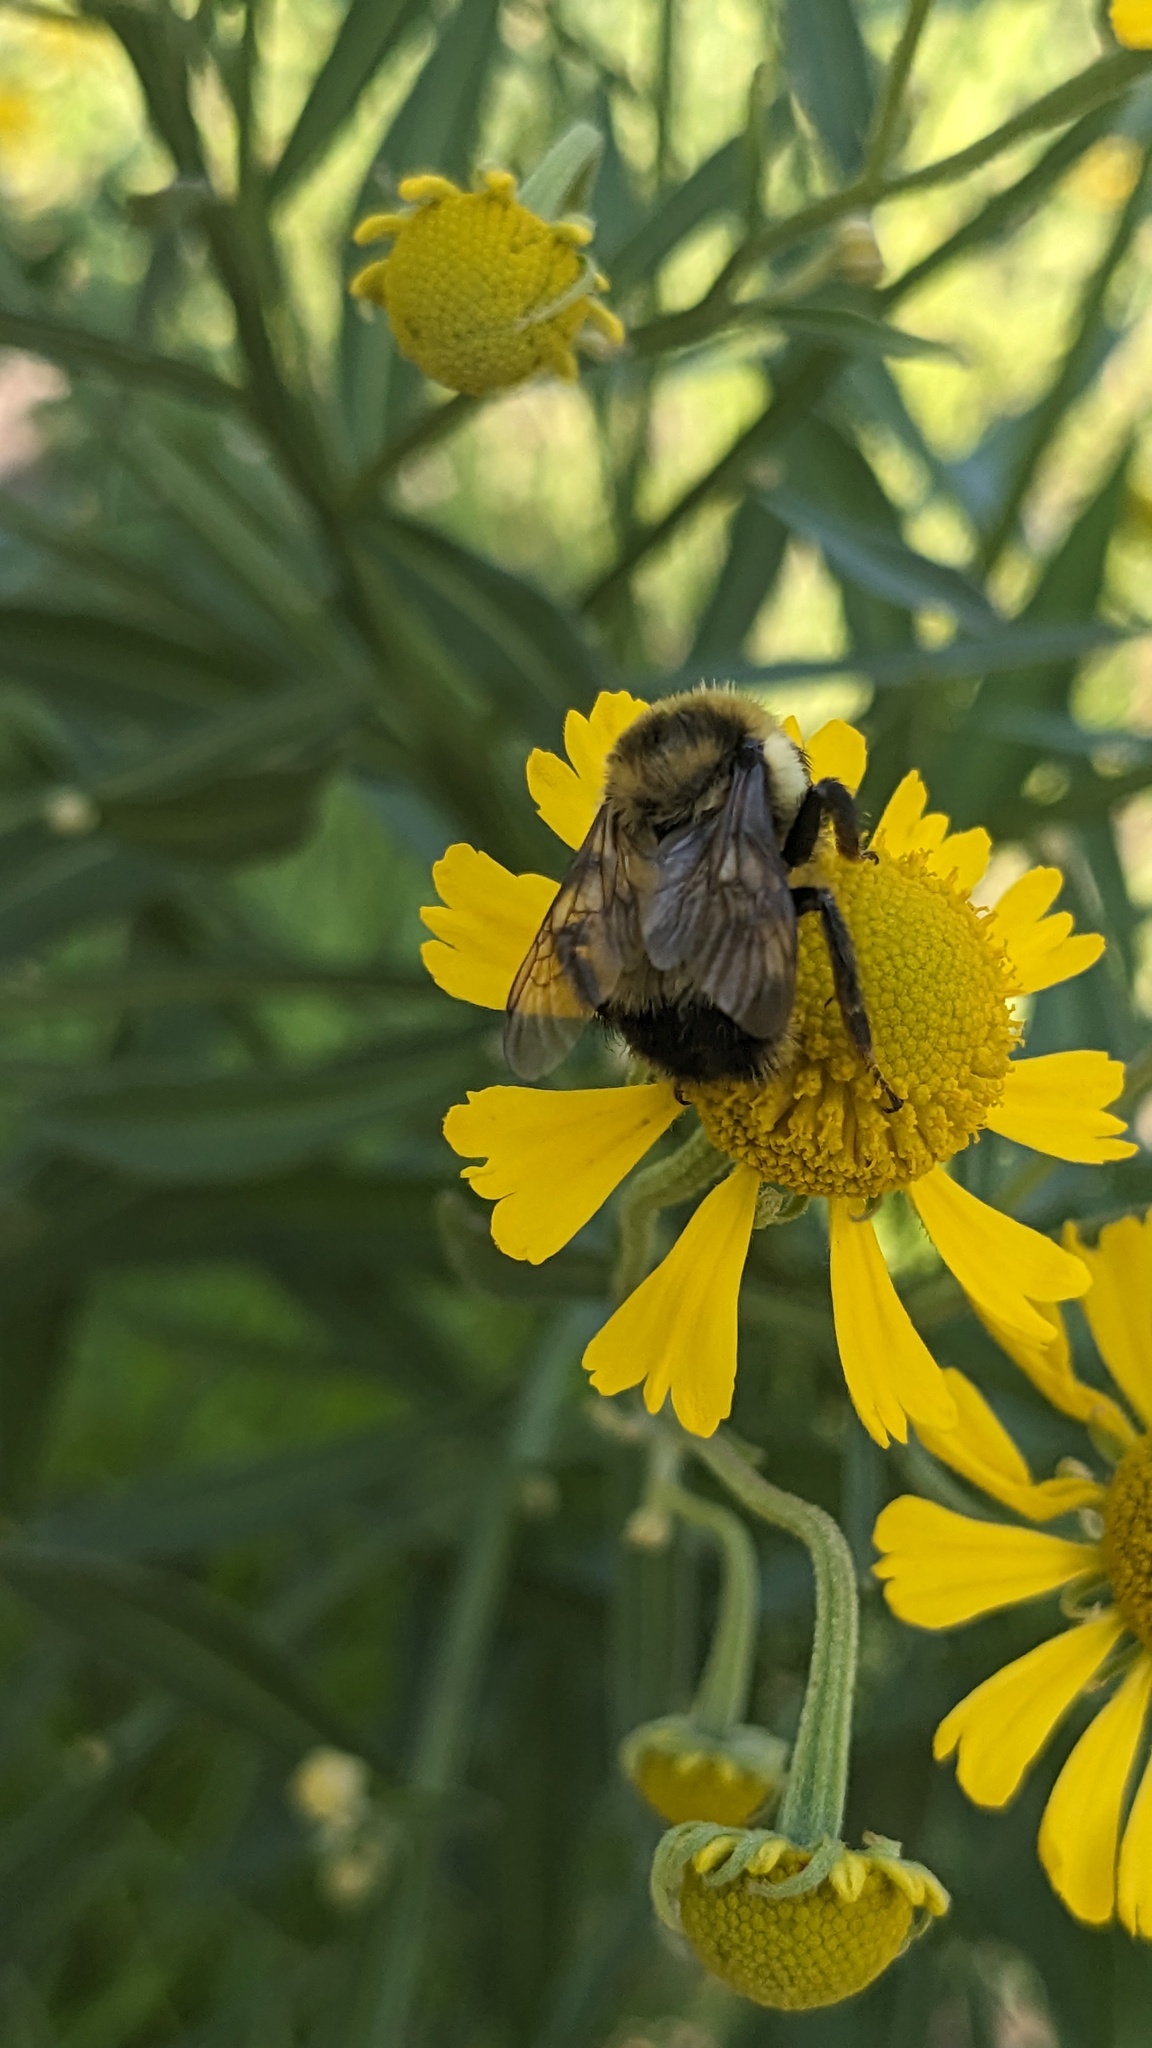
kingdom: Animalia
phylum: Arthropoda
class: Insecta
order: Hymenoptera
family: Apidae
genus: Bombus
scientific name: Bombus rufocinctus
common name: Red-belted bumble bee
